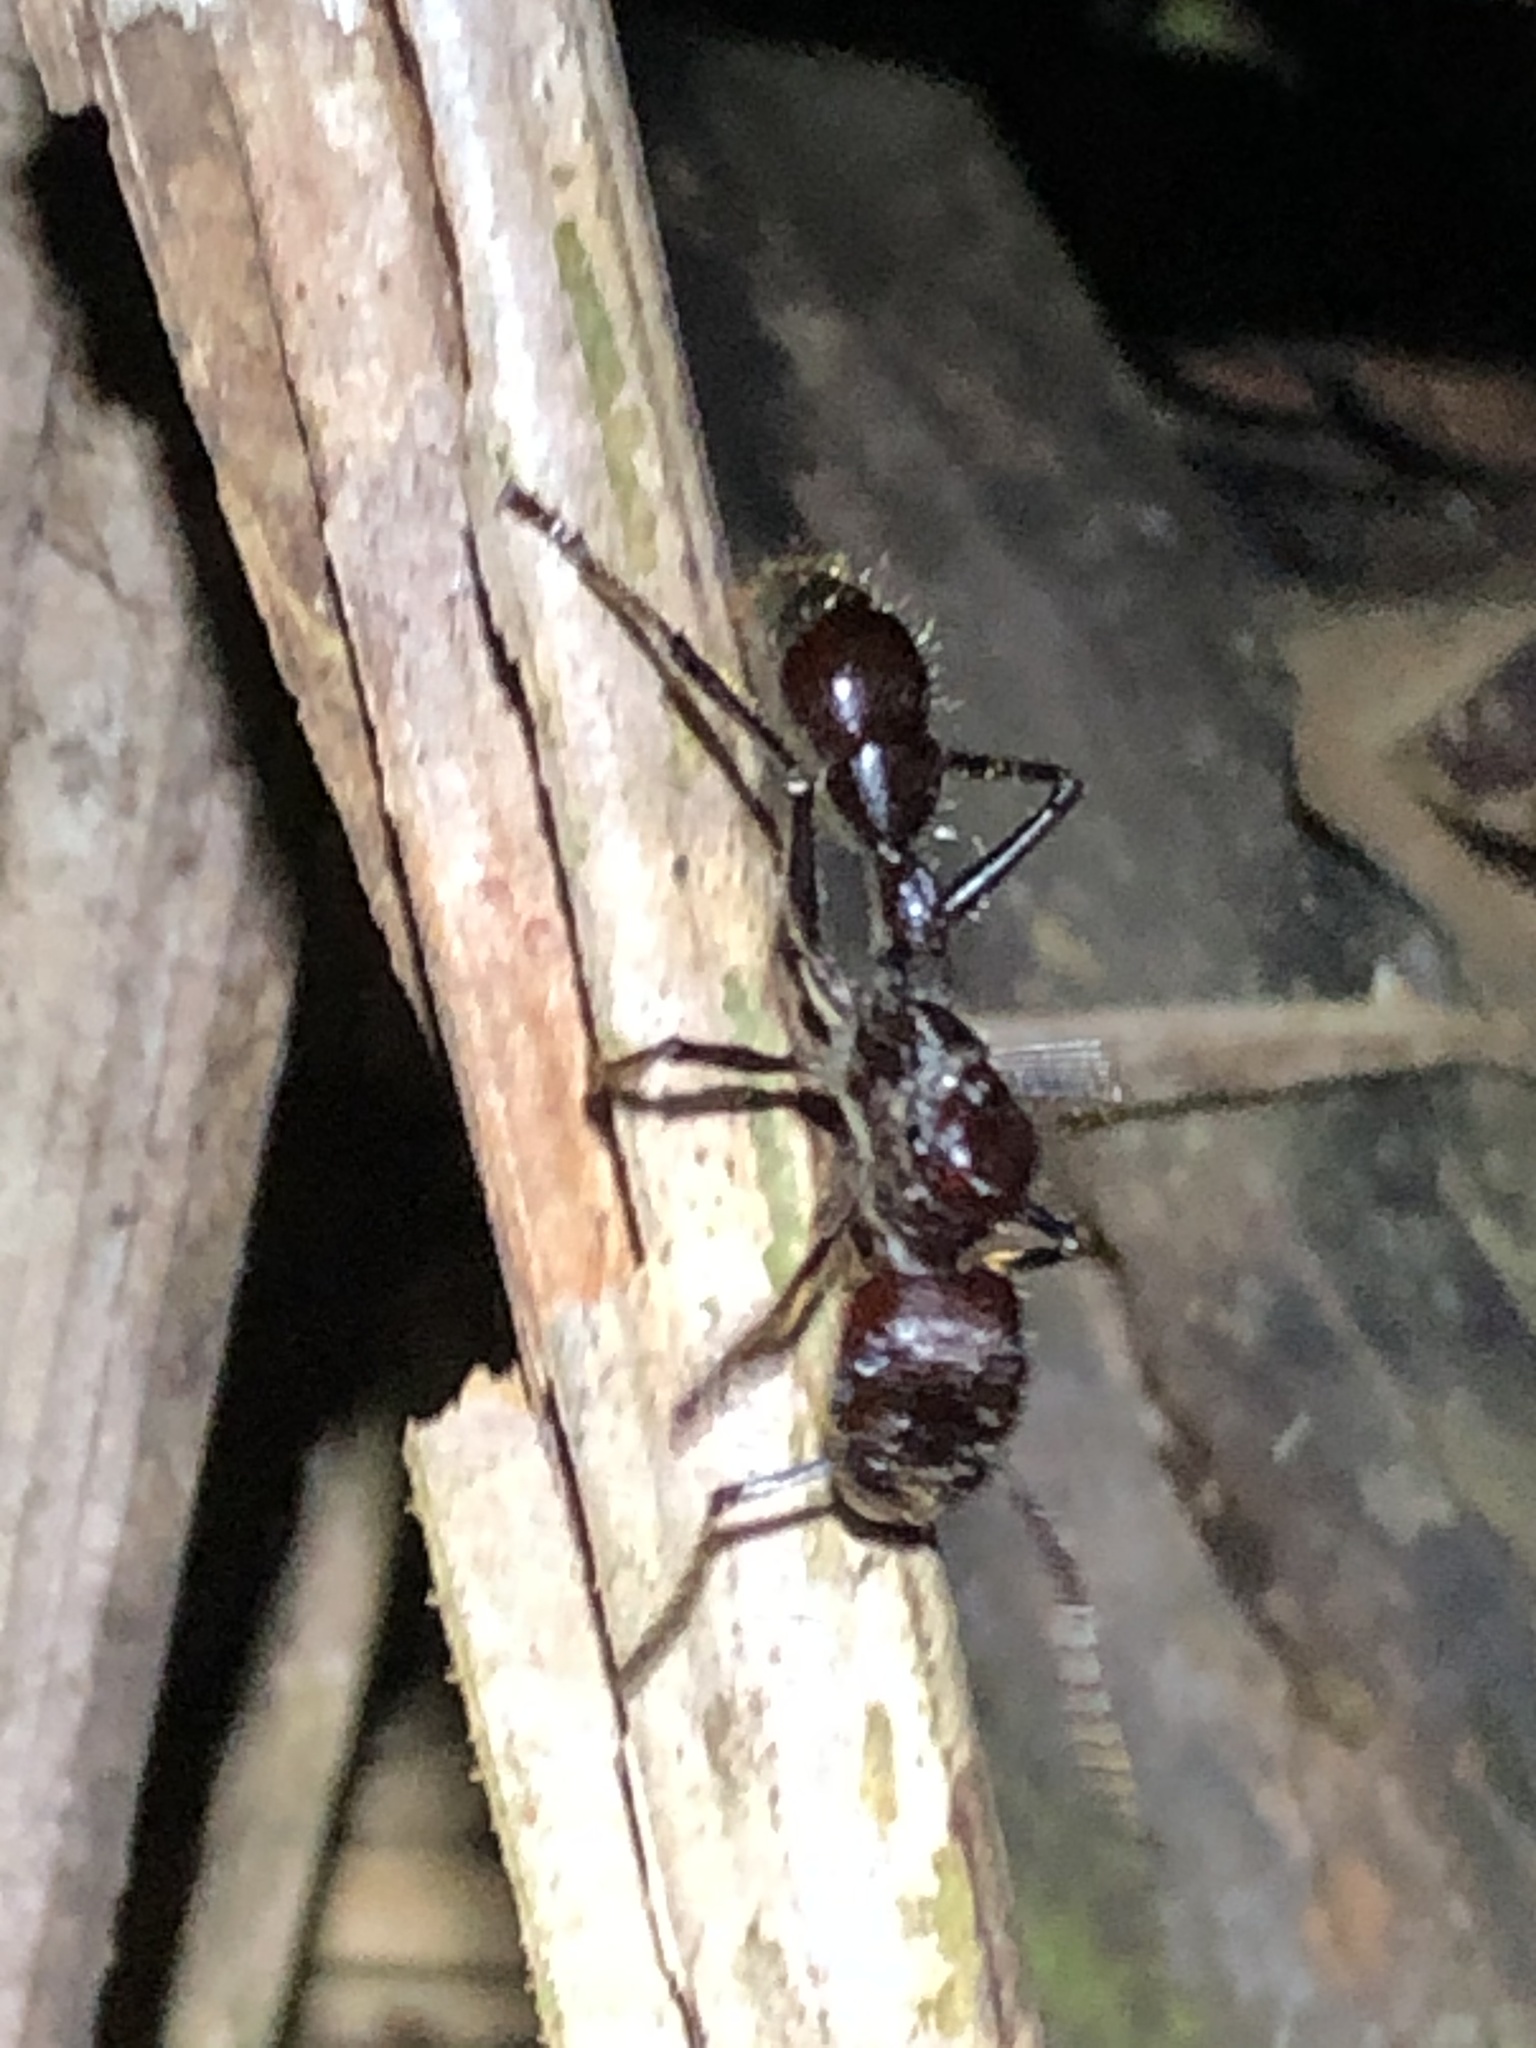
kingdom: Animalia
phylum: Arthropoda
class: Insecta
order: Hymenoptera
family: Formicidae
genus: Paraponera
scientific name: Paraponera clavata
